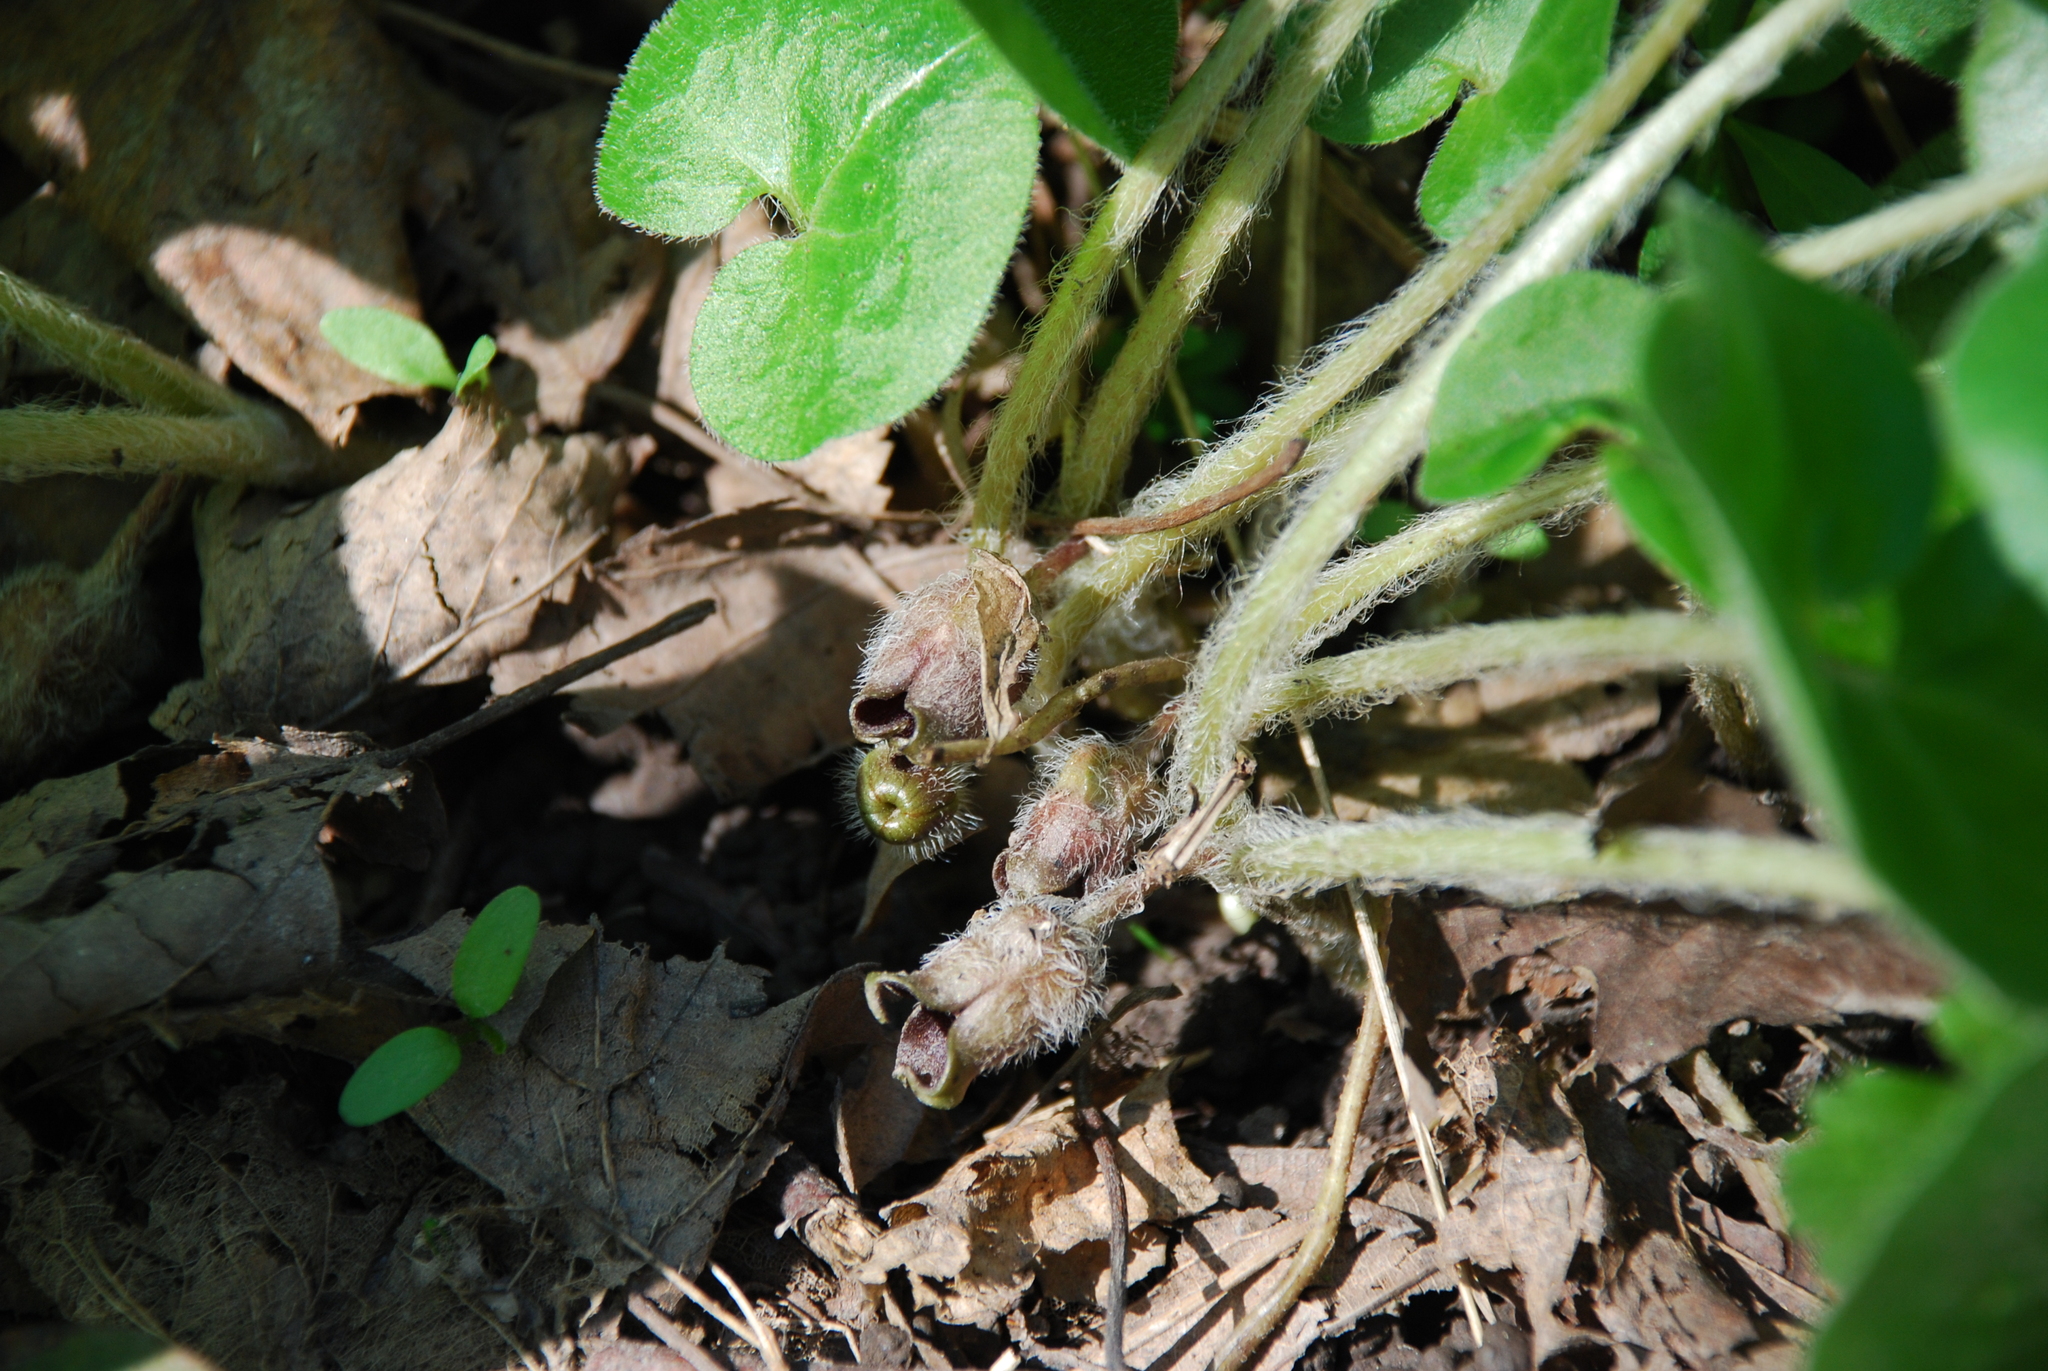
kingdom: Plantae
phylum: Tracheophyta
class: Magnoliopsida
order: Piperales
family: Aristolochiaceae
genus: Asarum
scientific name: Asarum europaeum
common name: Asarabacca
